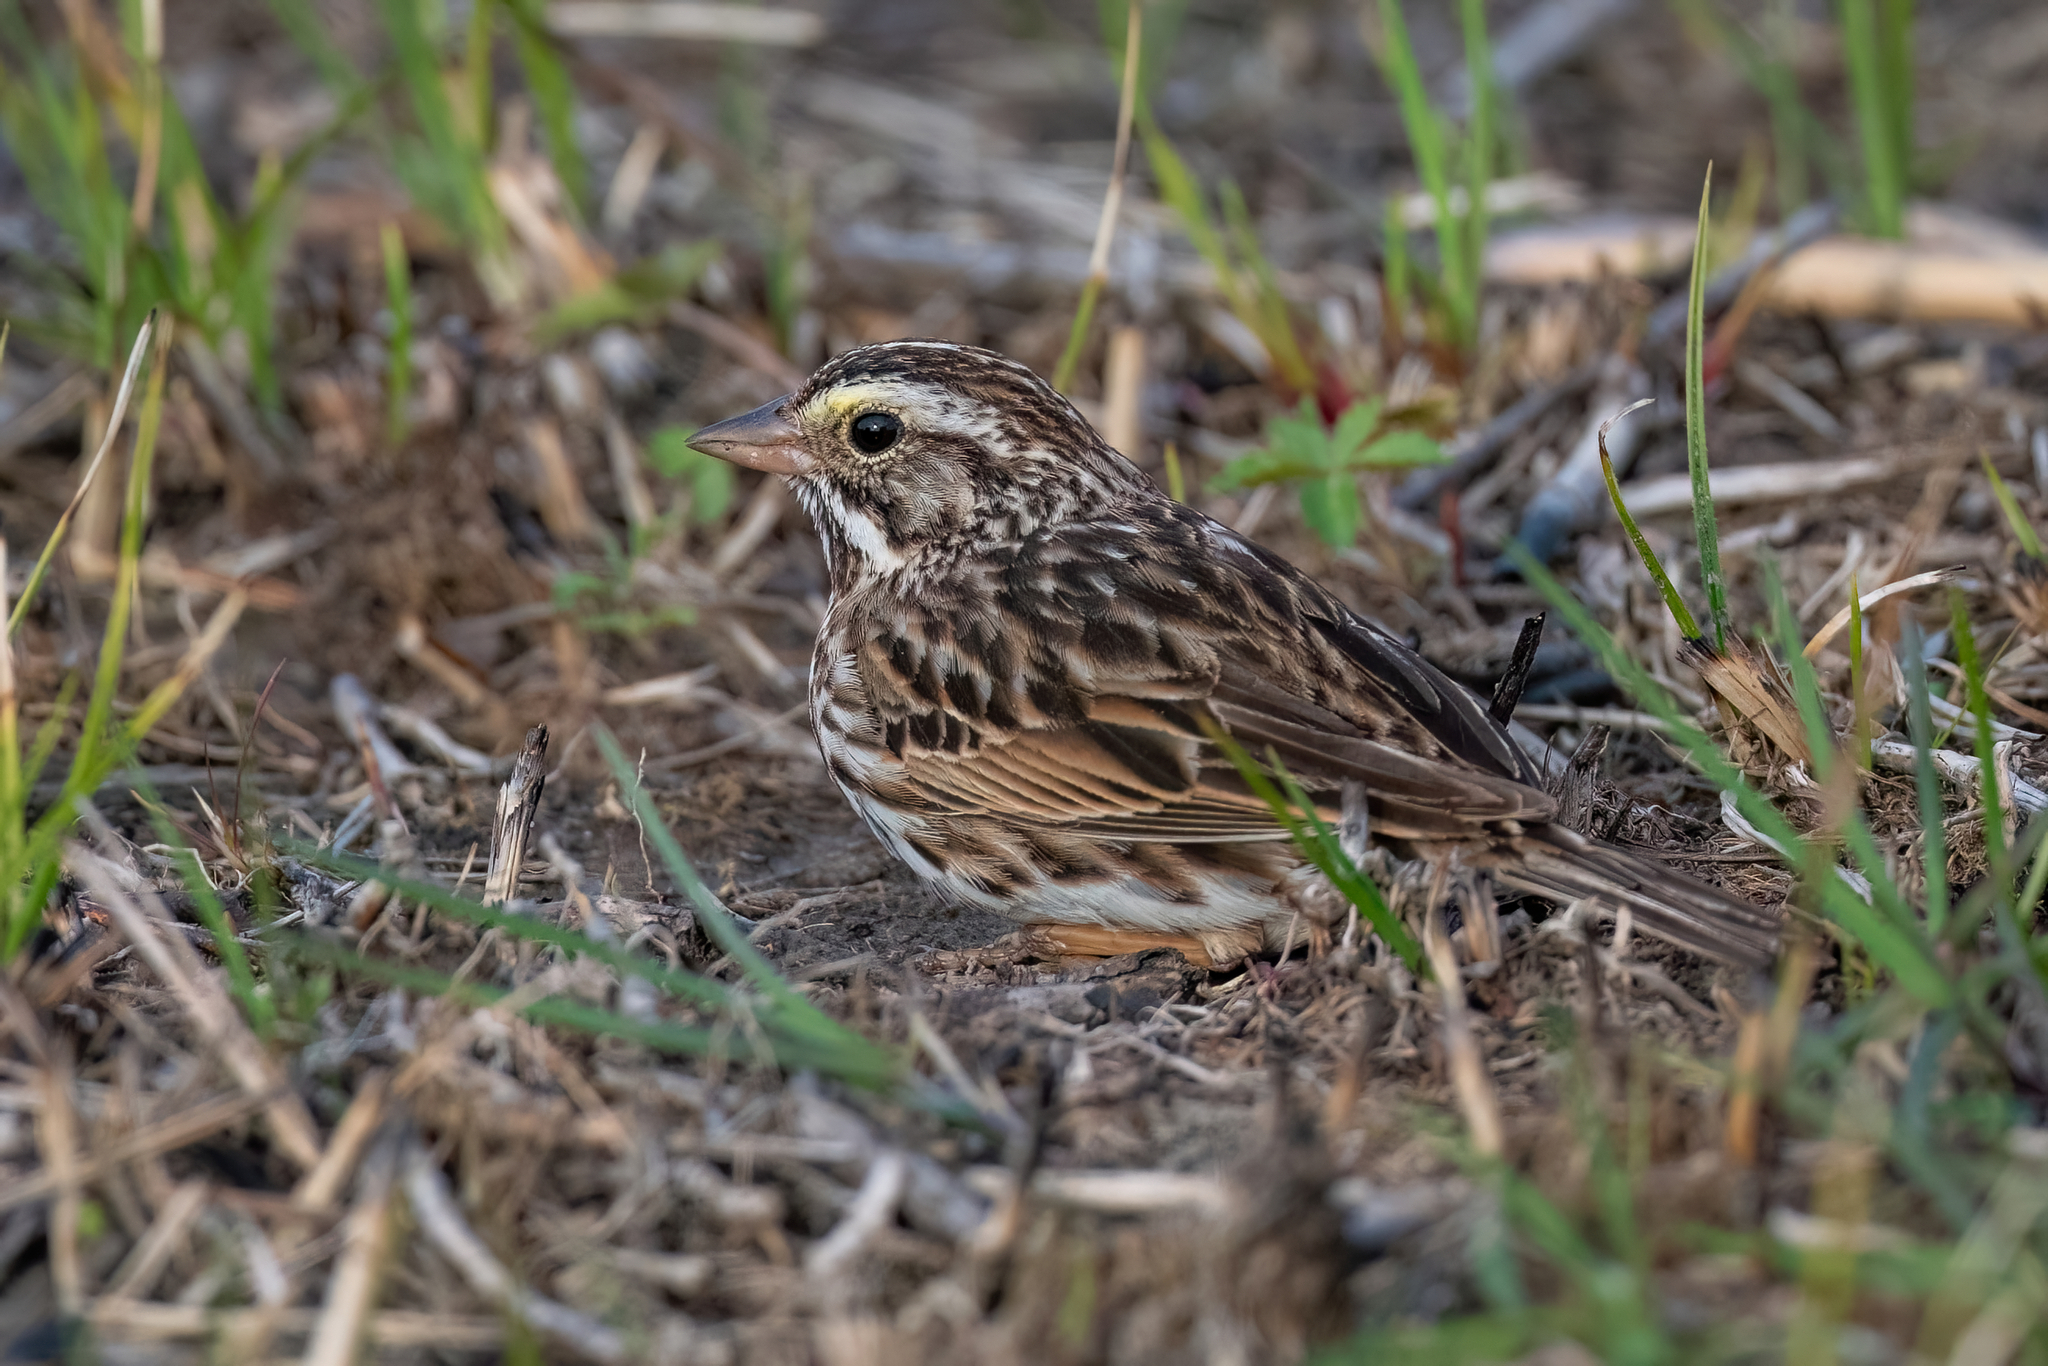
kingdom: Animalia
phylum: Chordata
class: Aves
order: Passeriformes
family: Passerellidae
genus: Passerculus
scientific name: Passerculus sandwichensis
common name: Savannah sparrow
